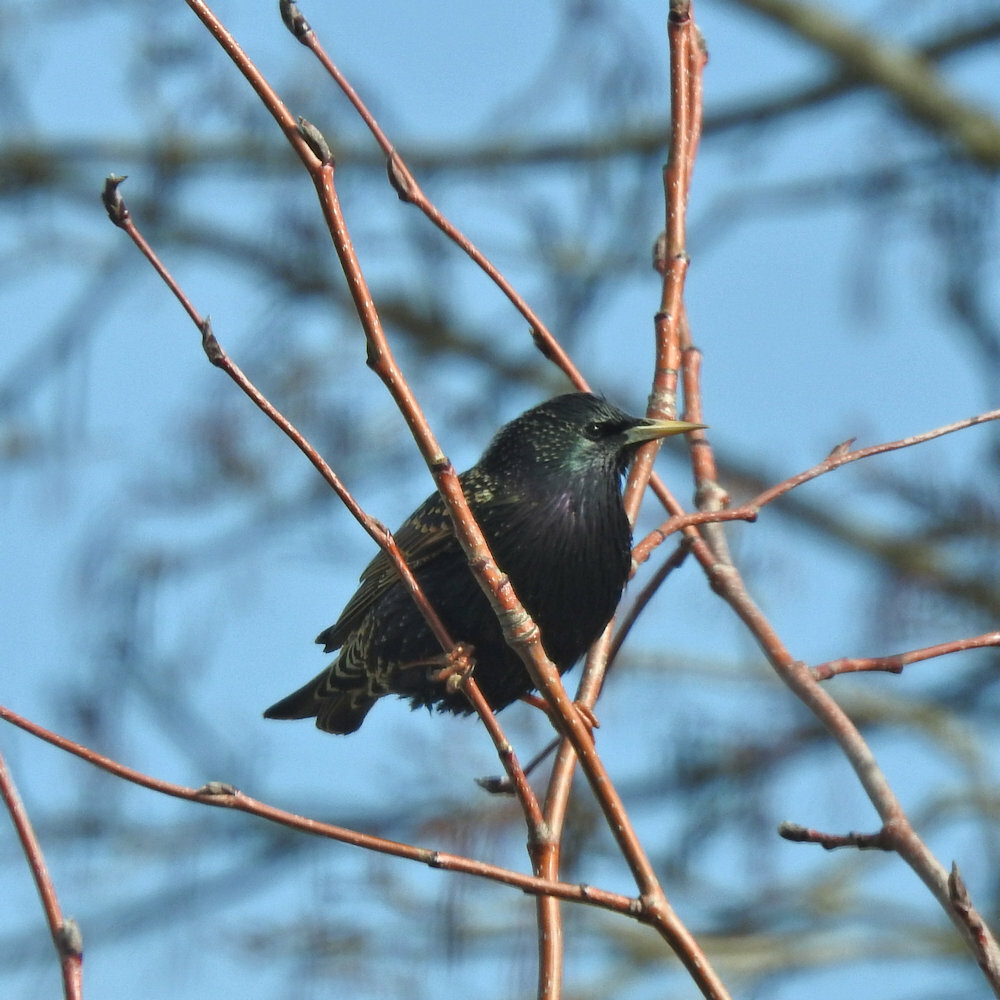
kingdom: Animalia
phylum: Chordata
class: Aves
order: Passeriformes
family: Sturnidae
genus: Sturnus
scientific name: Sturnus vulgaris
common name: Common starling
